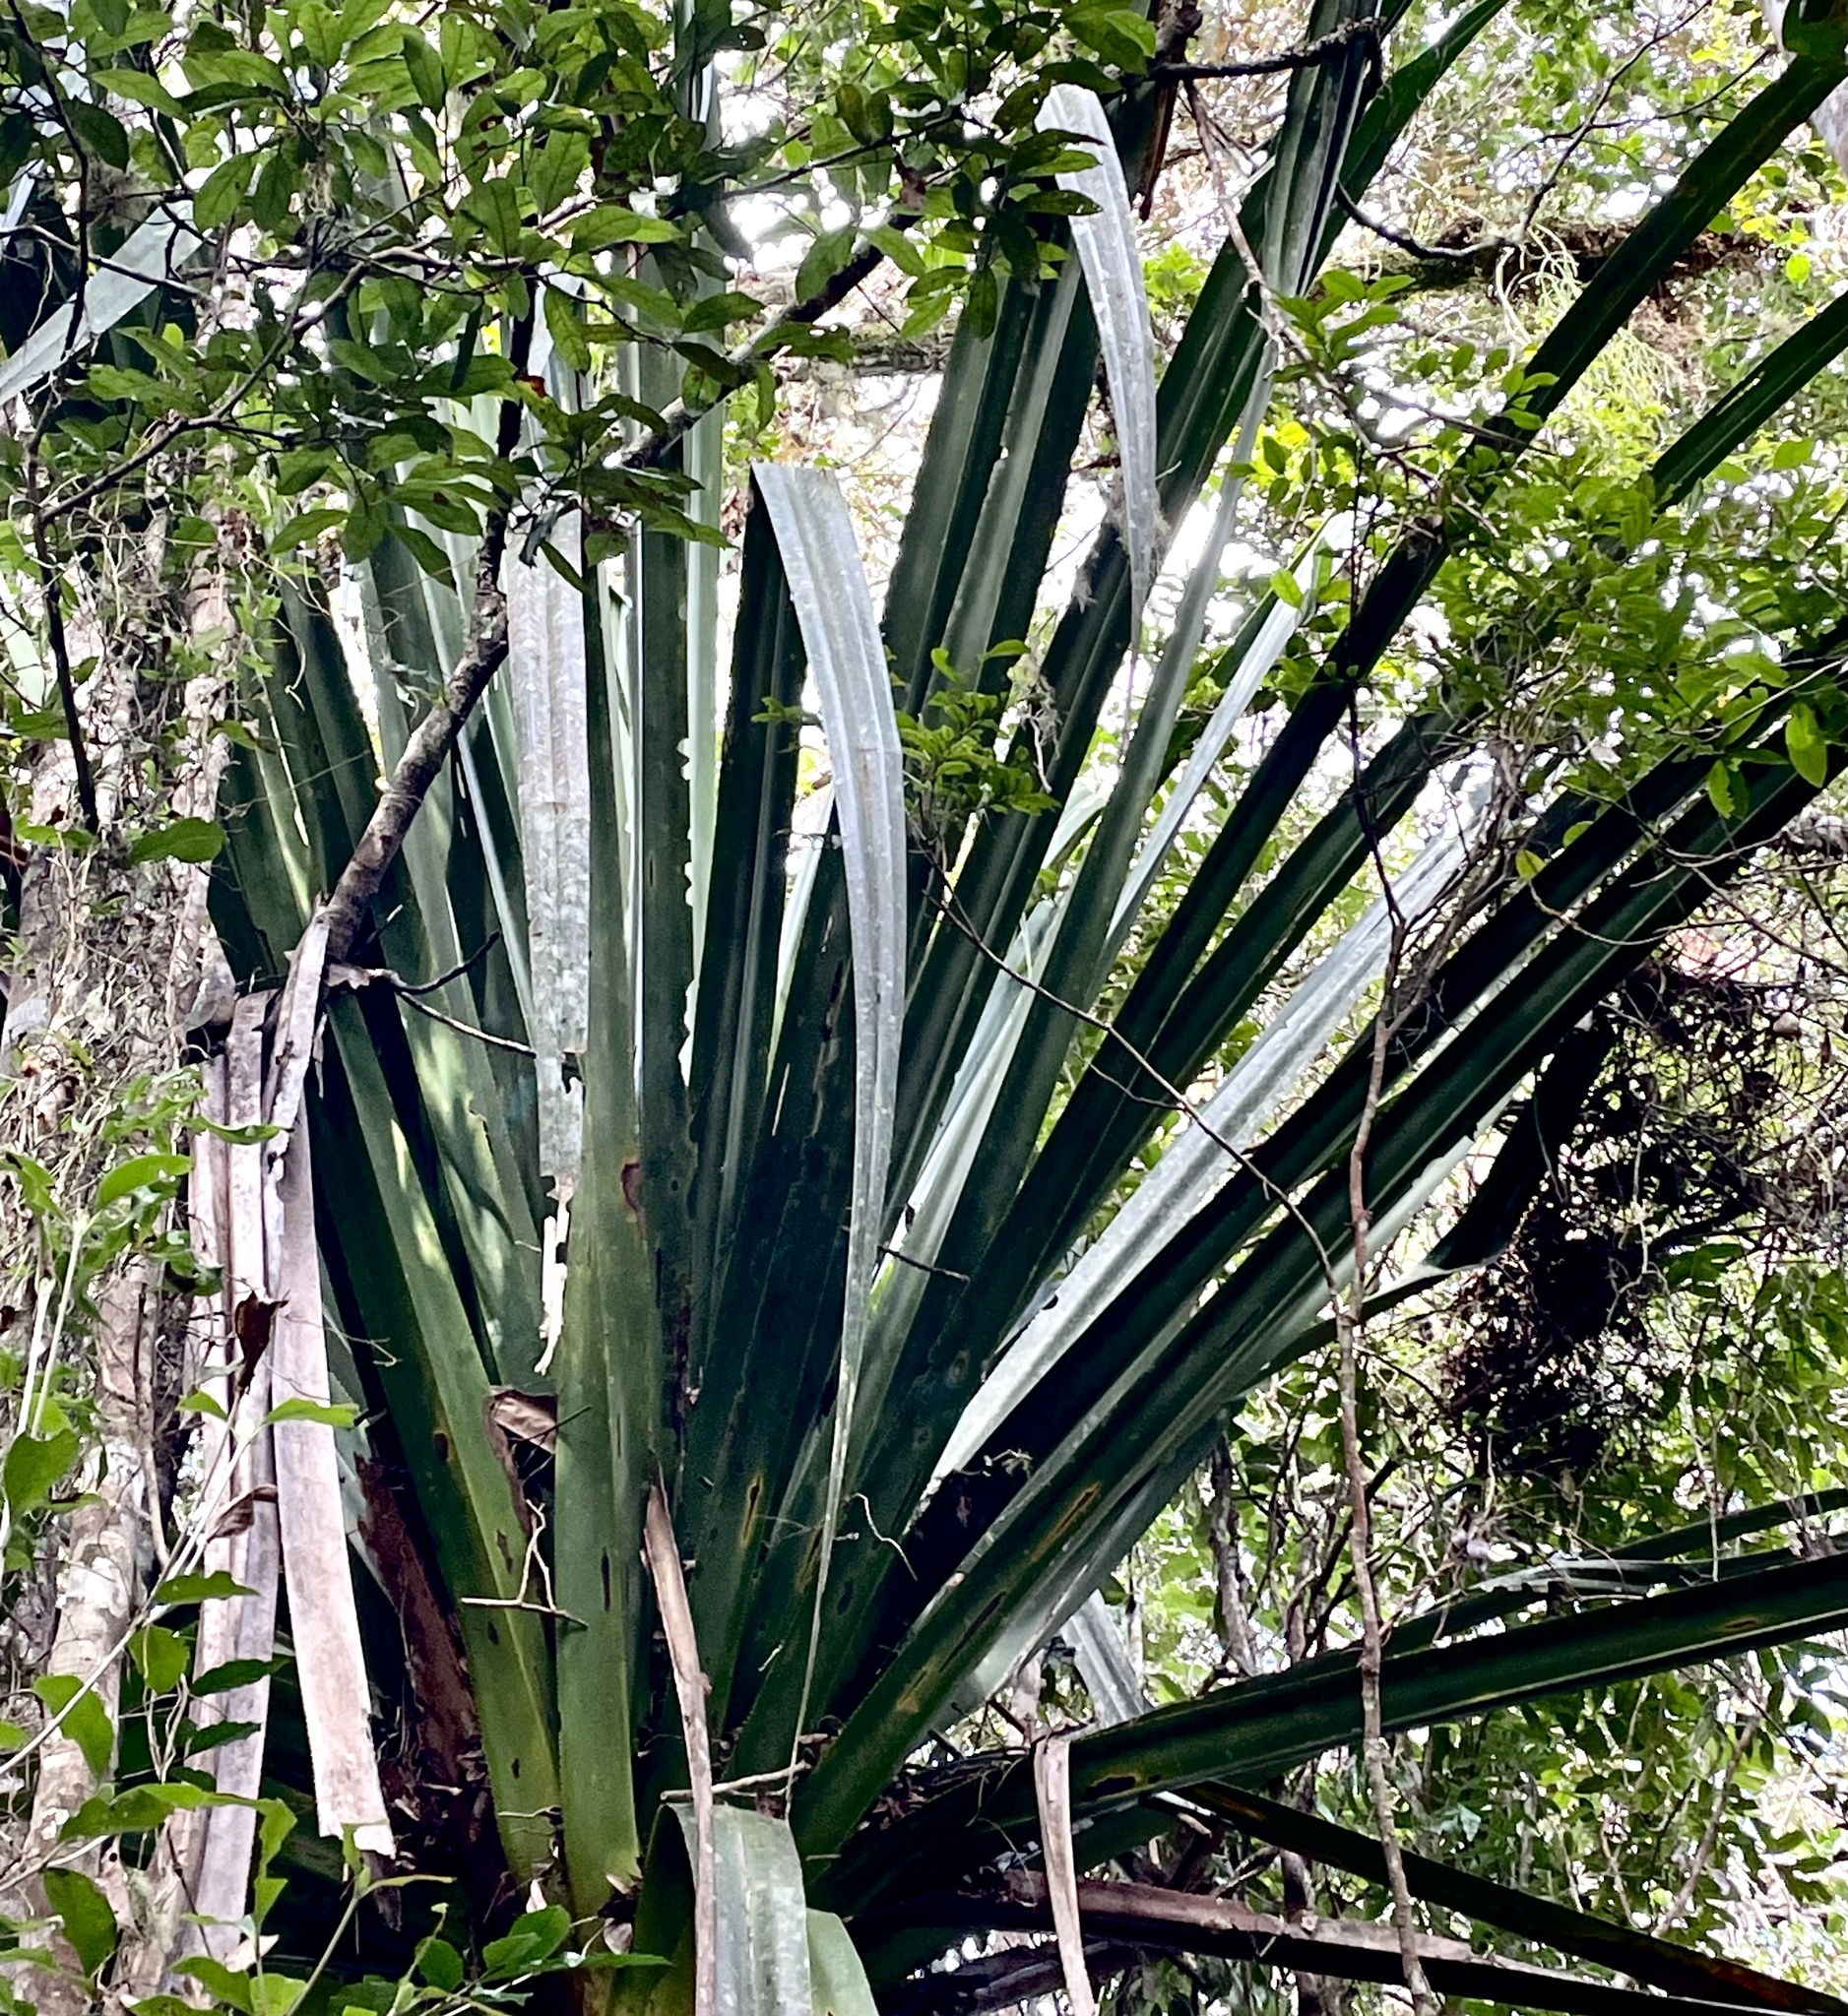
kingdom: Plantae
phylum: Tracheophyta
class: Liliopsida
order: Pandanales
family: Pandanaceae
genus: Pandanus
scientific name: Pandanus pulcher
